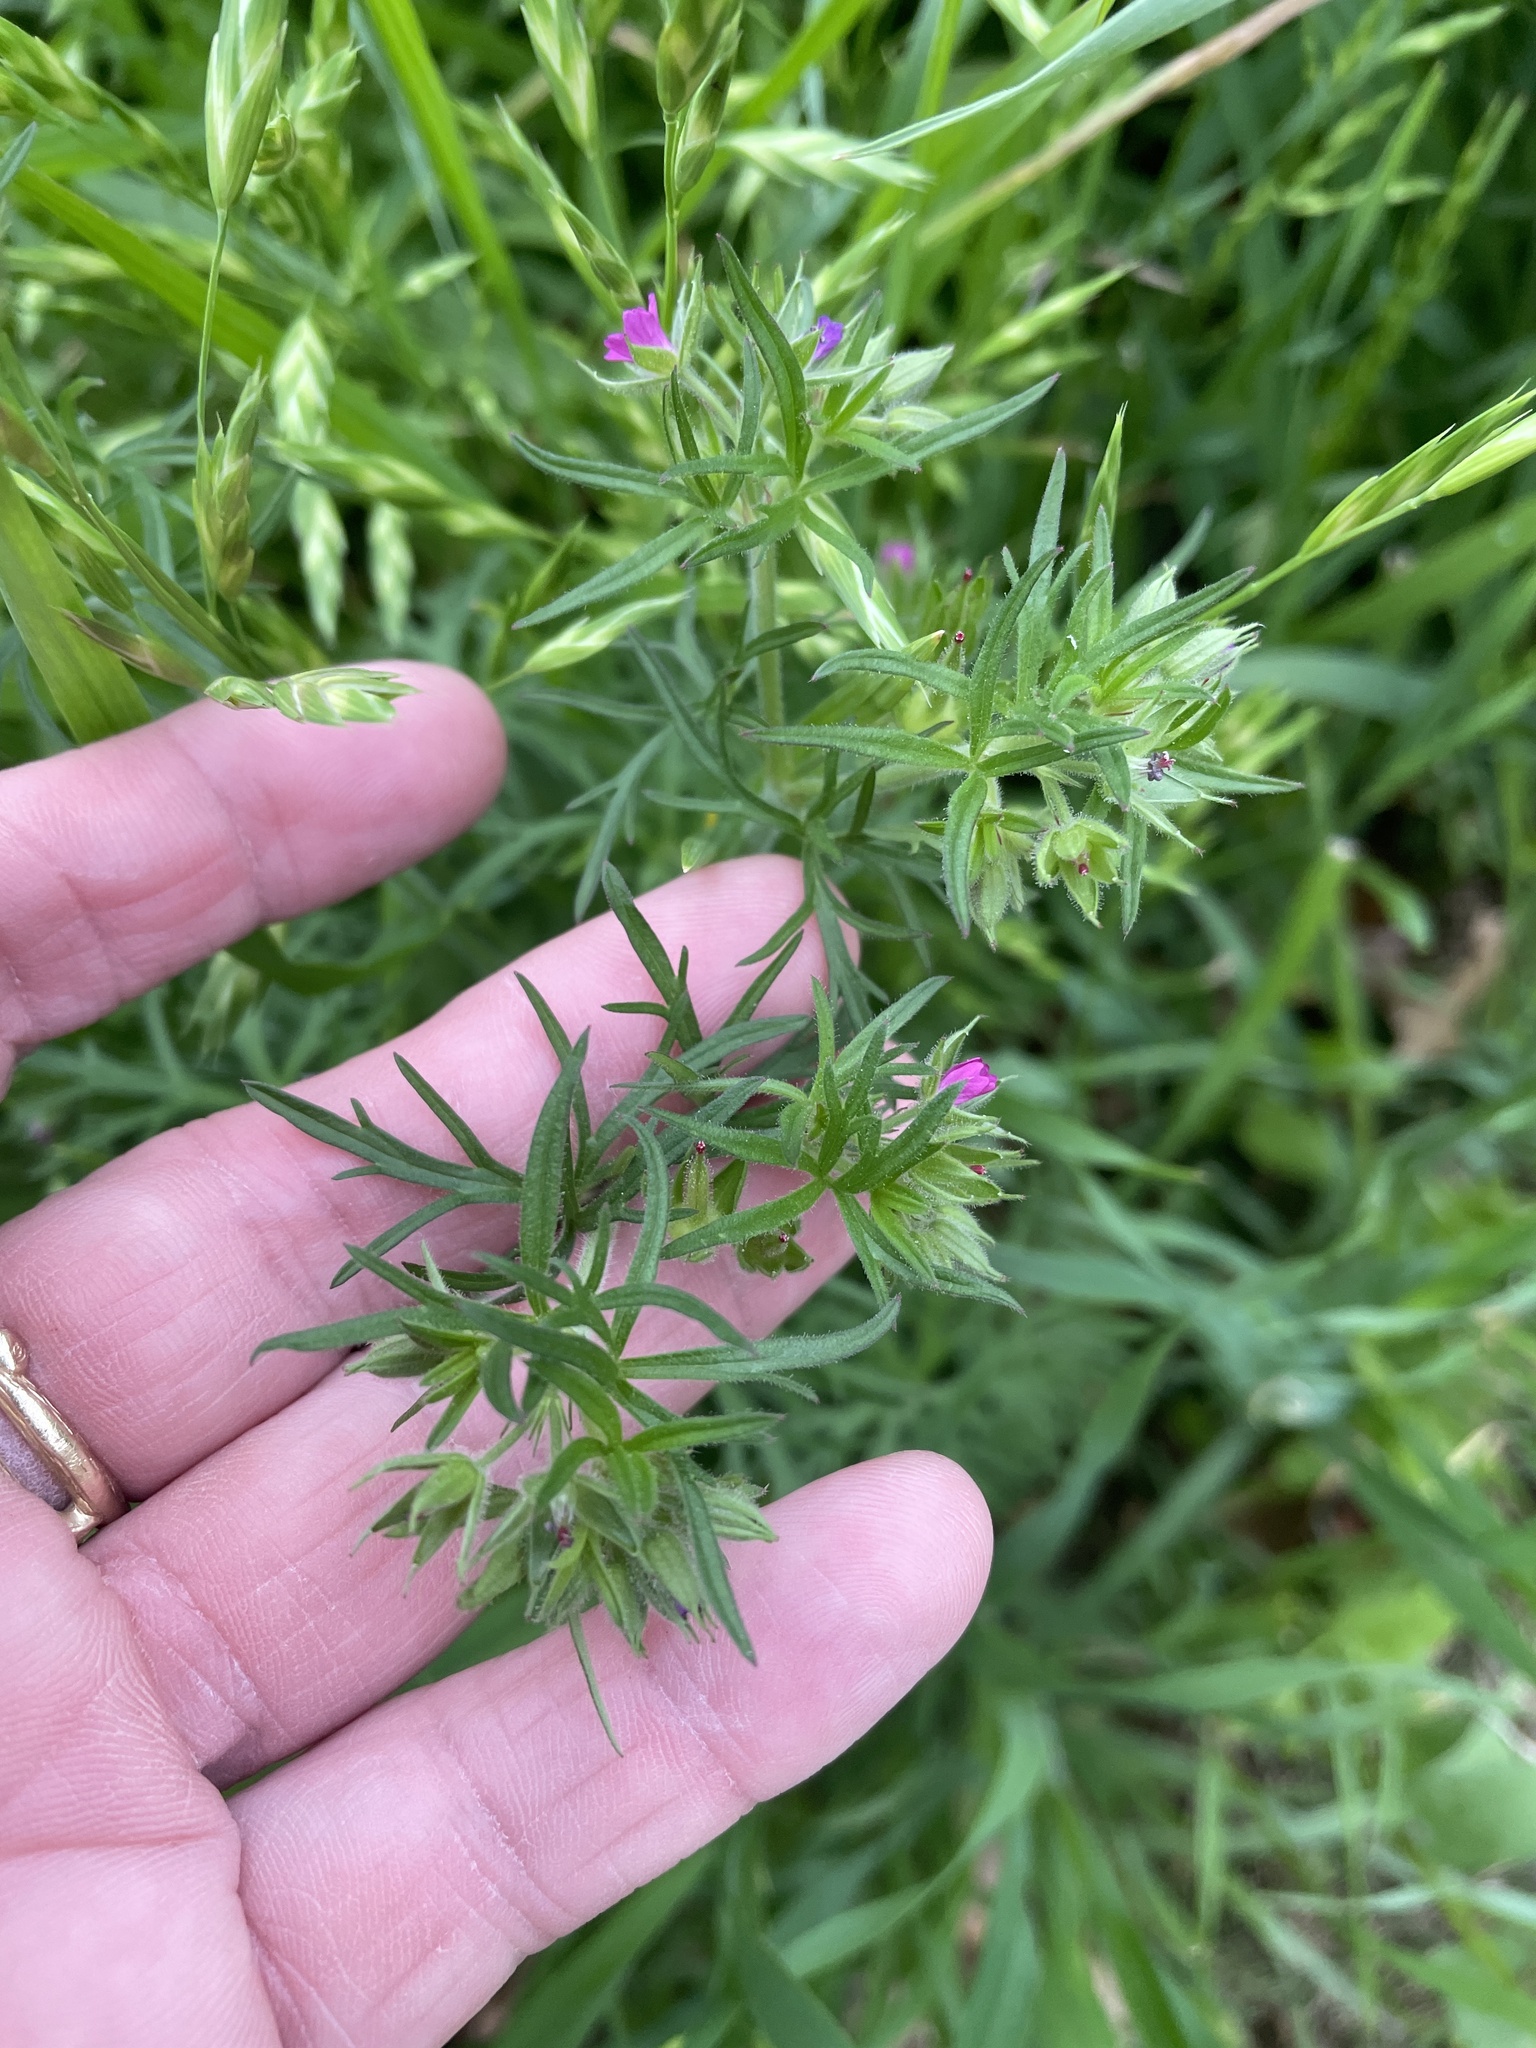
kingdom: Plantae
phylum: Tracheophyta
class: Magnoliopsida
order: Geraniales
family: Geraniaceae
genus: Geranium
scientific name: Geranium dissectum
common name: Cut-leaved crane's-bill
